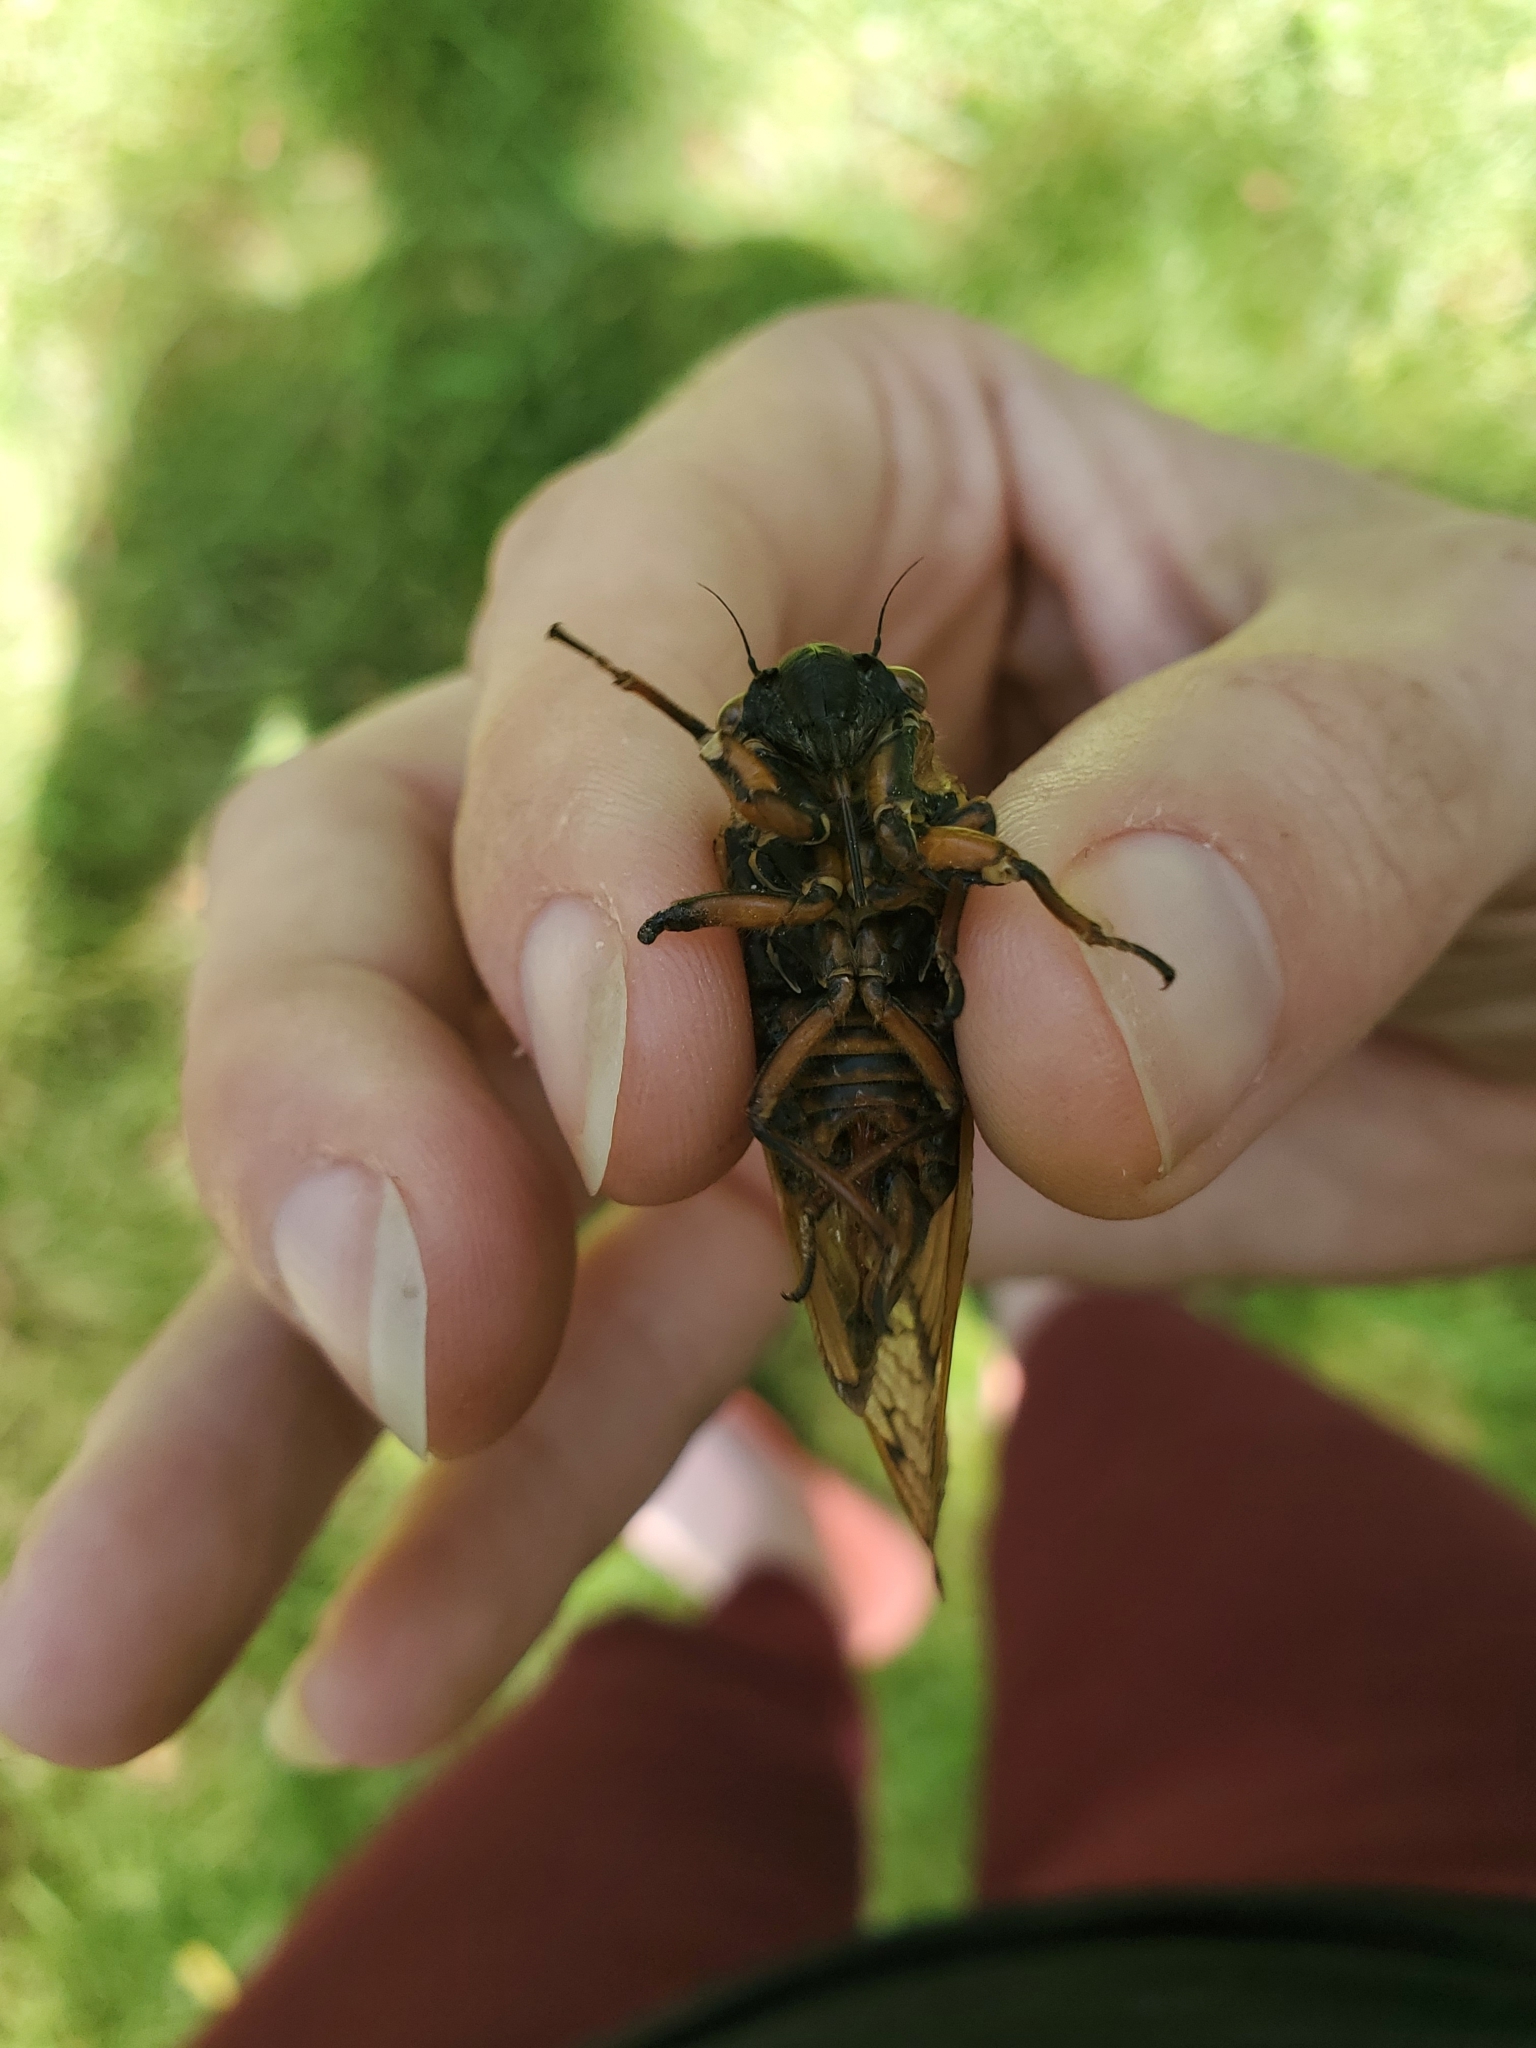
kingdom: Animalia
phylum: Arthropoda
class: Insecta
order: Hemiptera
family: Cicadidae
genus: Magicicada
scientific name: Magicicada septendecim
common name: Periodical cicada
